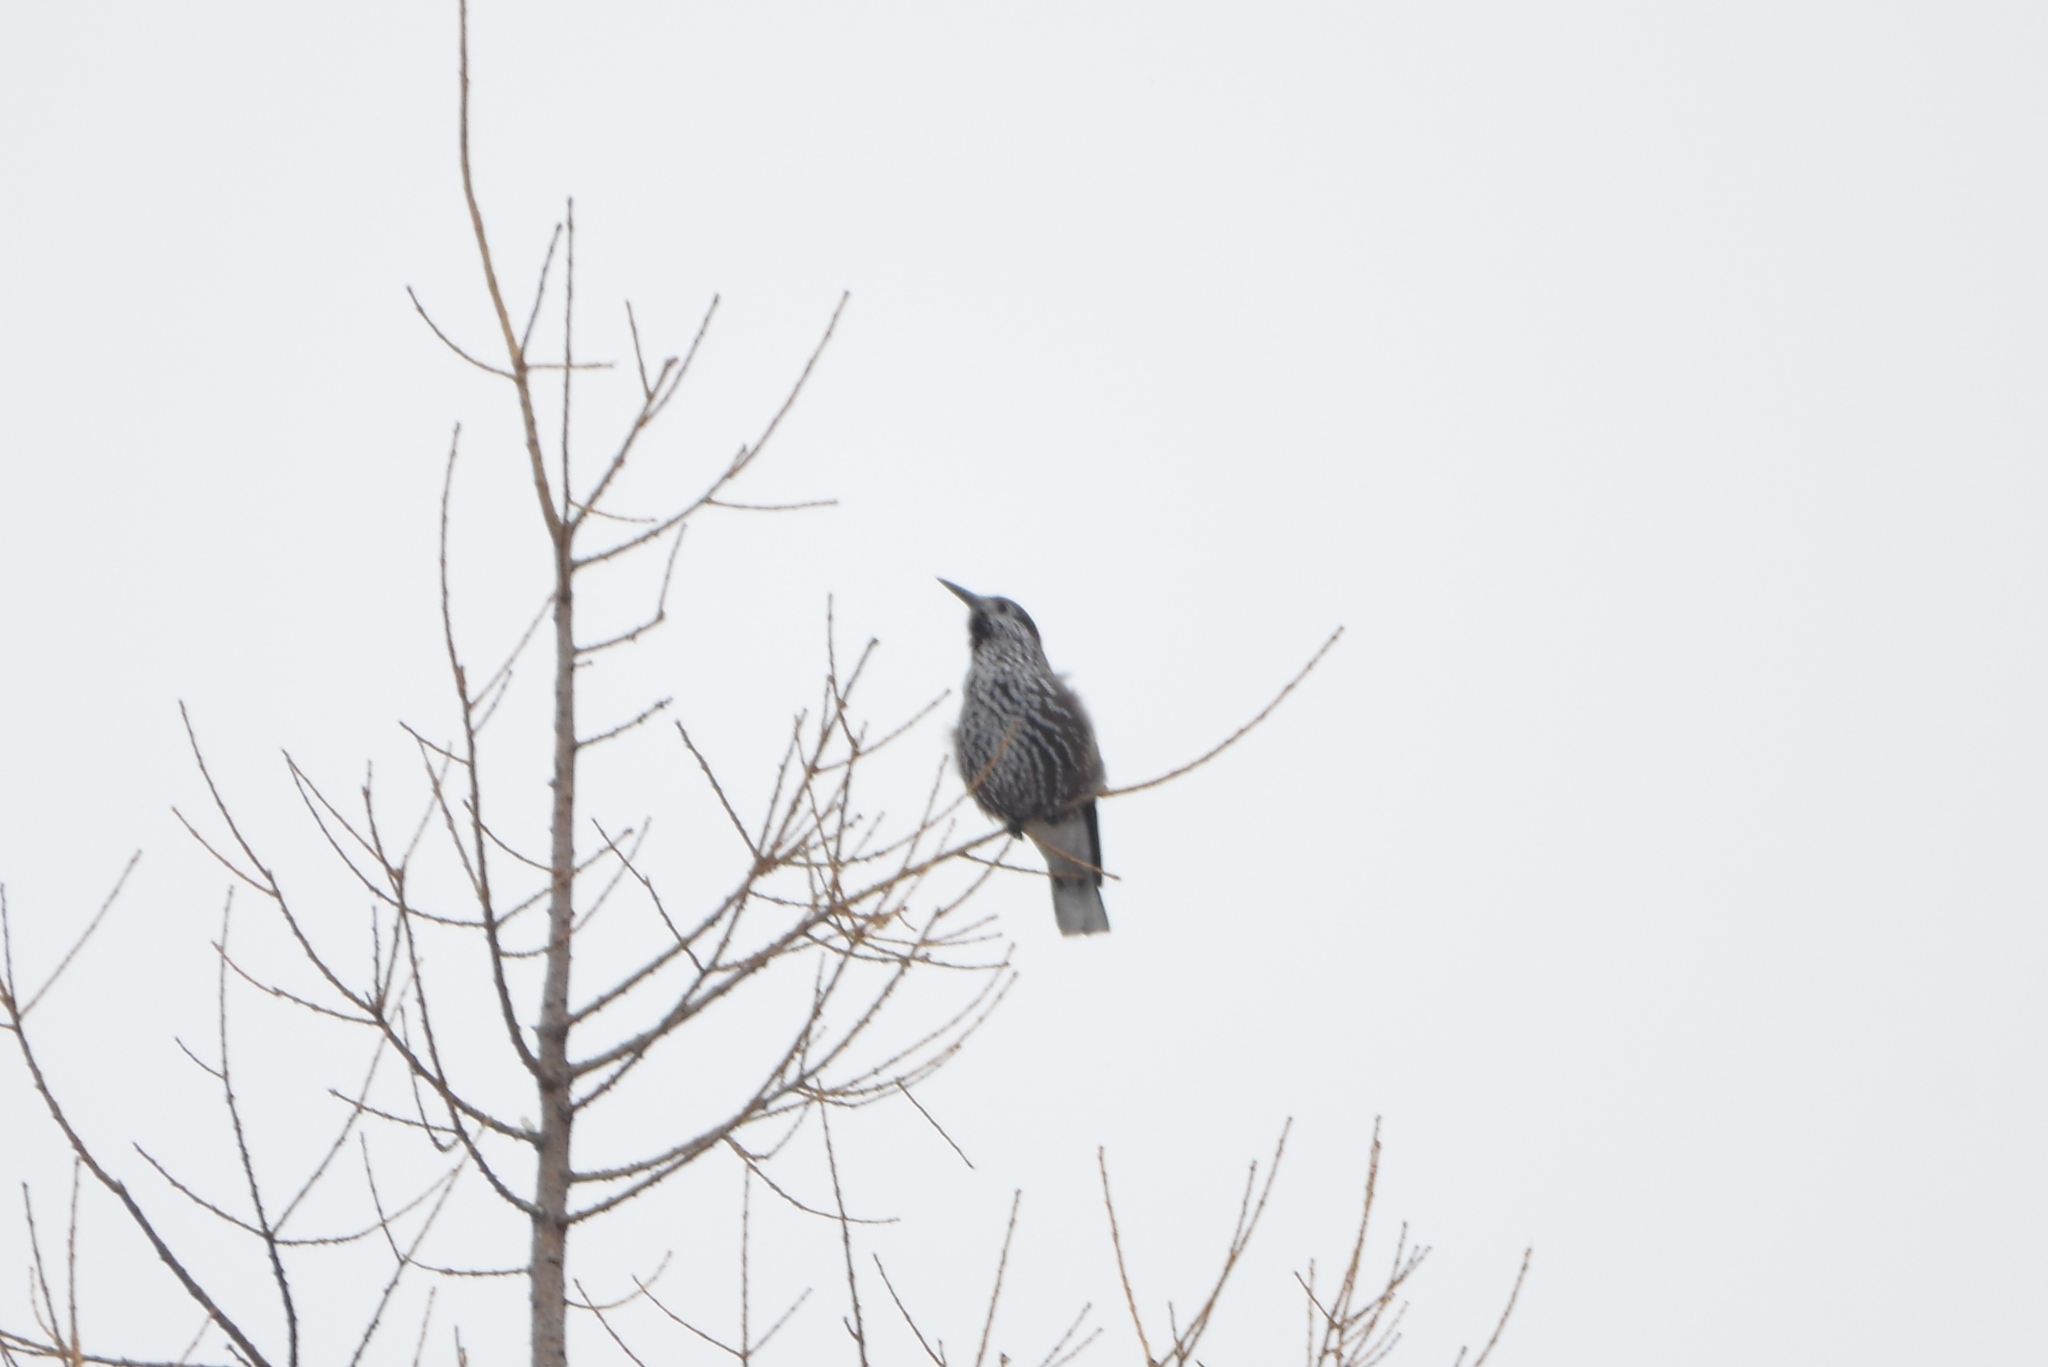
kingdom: Animalia
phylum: Chordata
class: Aves
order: Passeriformes
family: Corvidae
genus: Nucifraga
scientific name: Nucifraga caryocatactes
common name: Spotted nutcracker
